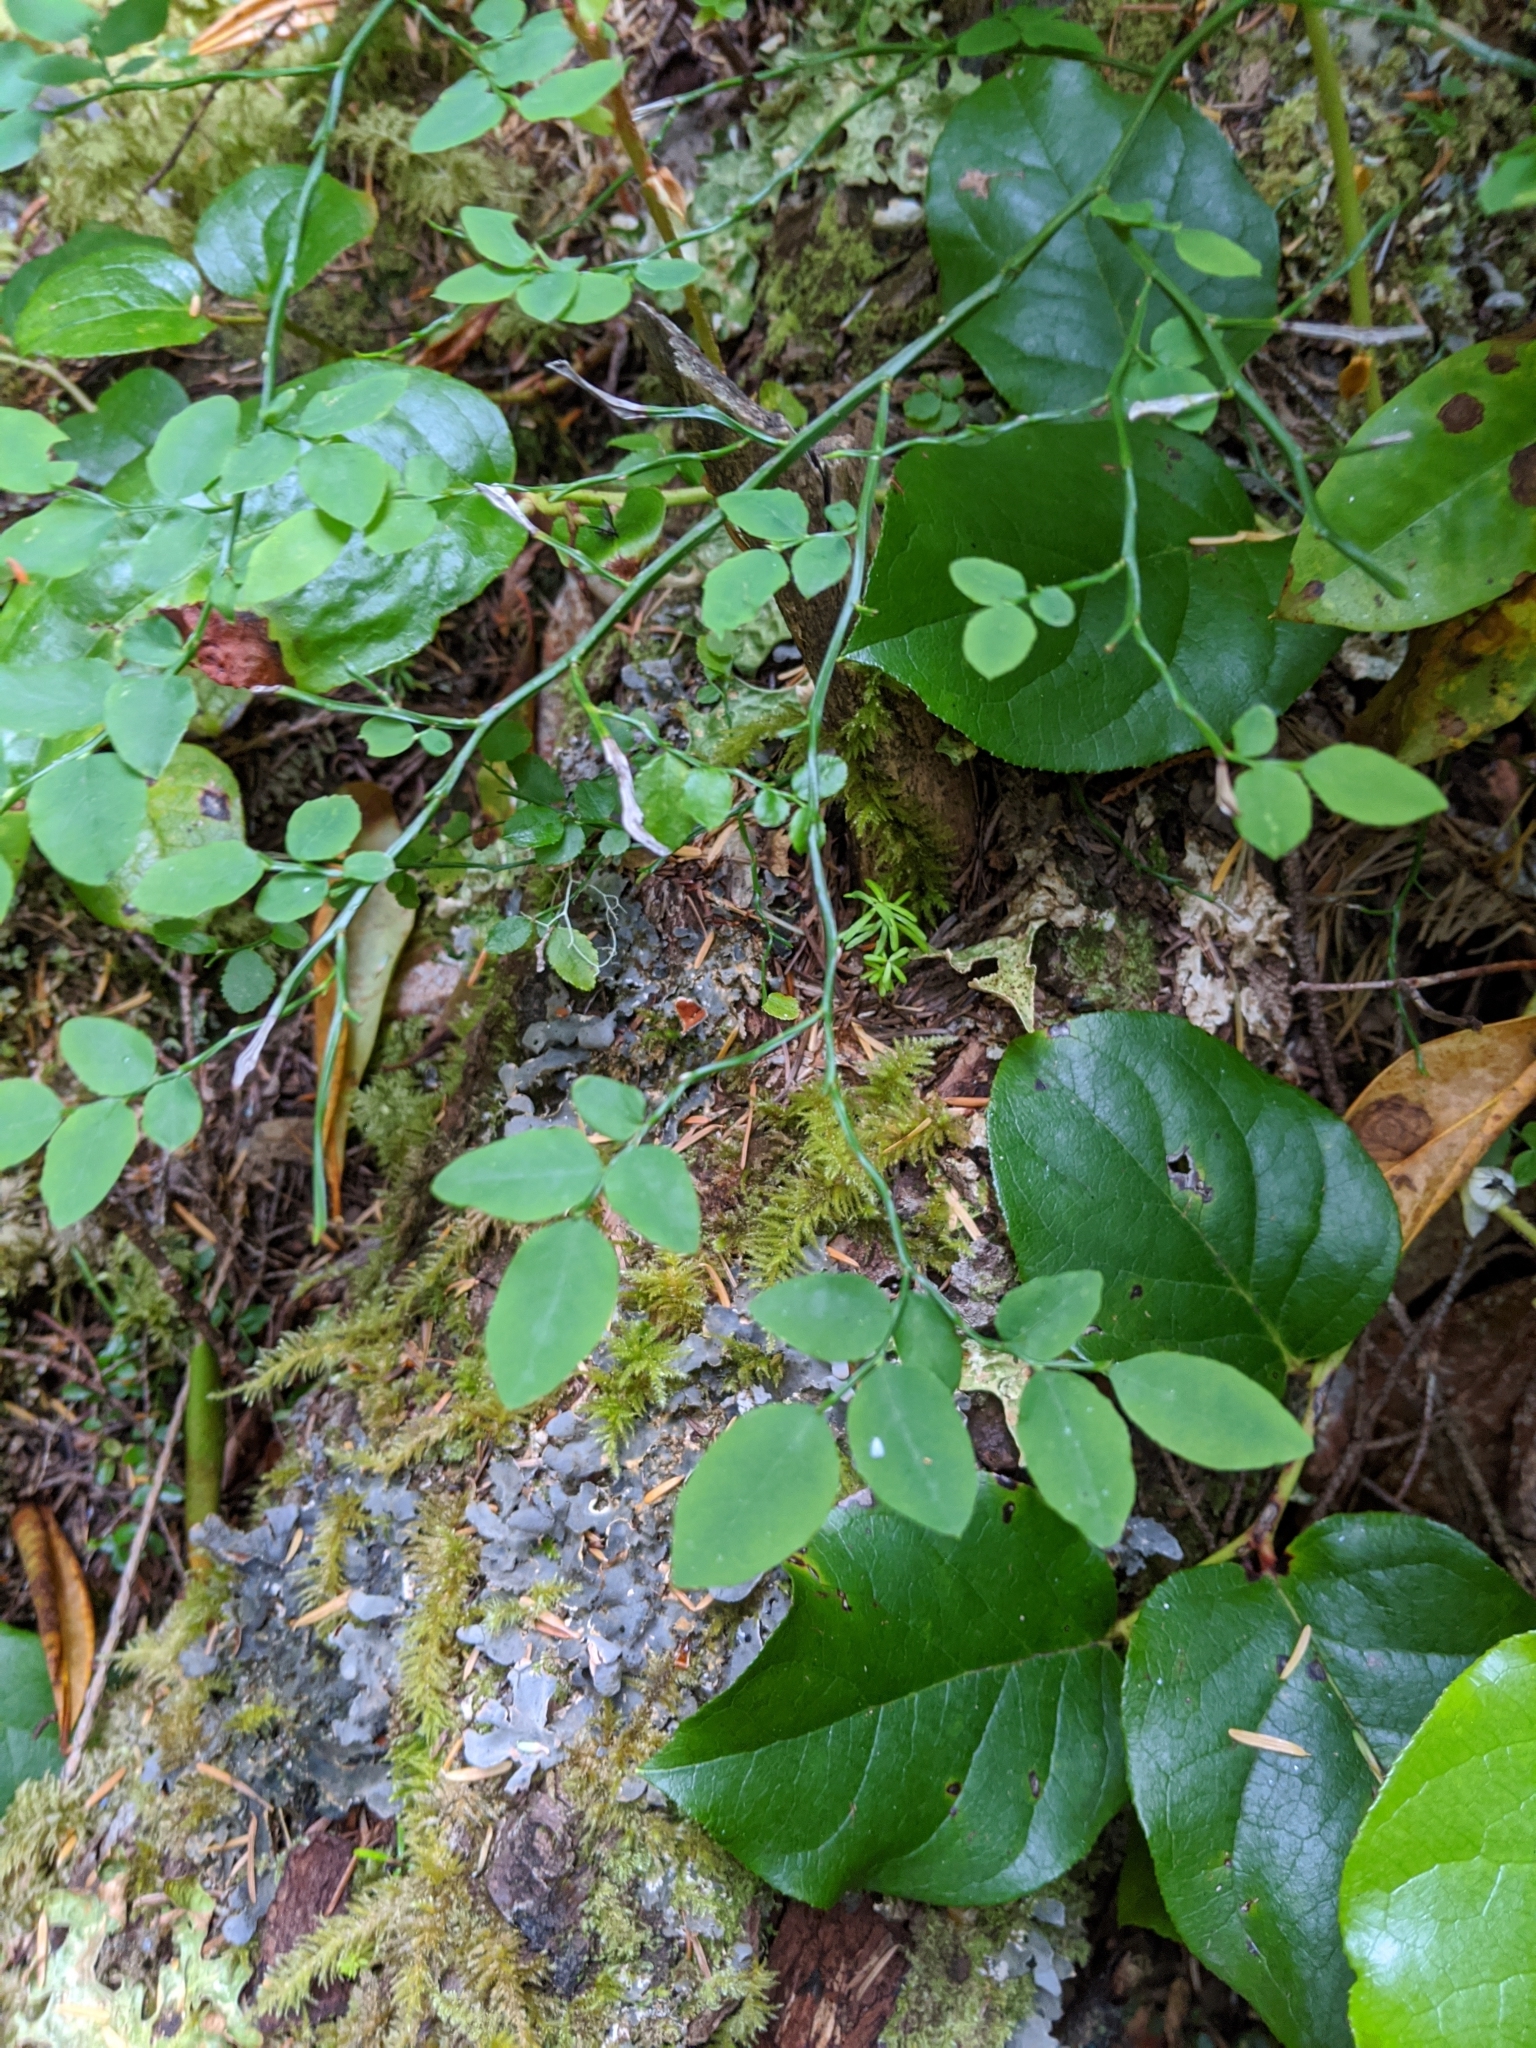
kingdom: Plantae
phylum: Tracheophyta
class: Magnoliopsida
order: Ericales
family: Ericaceae
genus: Vaccinium
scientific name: Vaccinium parvifolium
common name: Red-huckleberry
